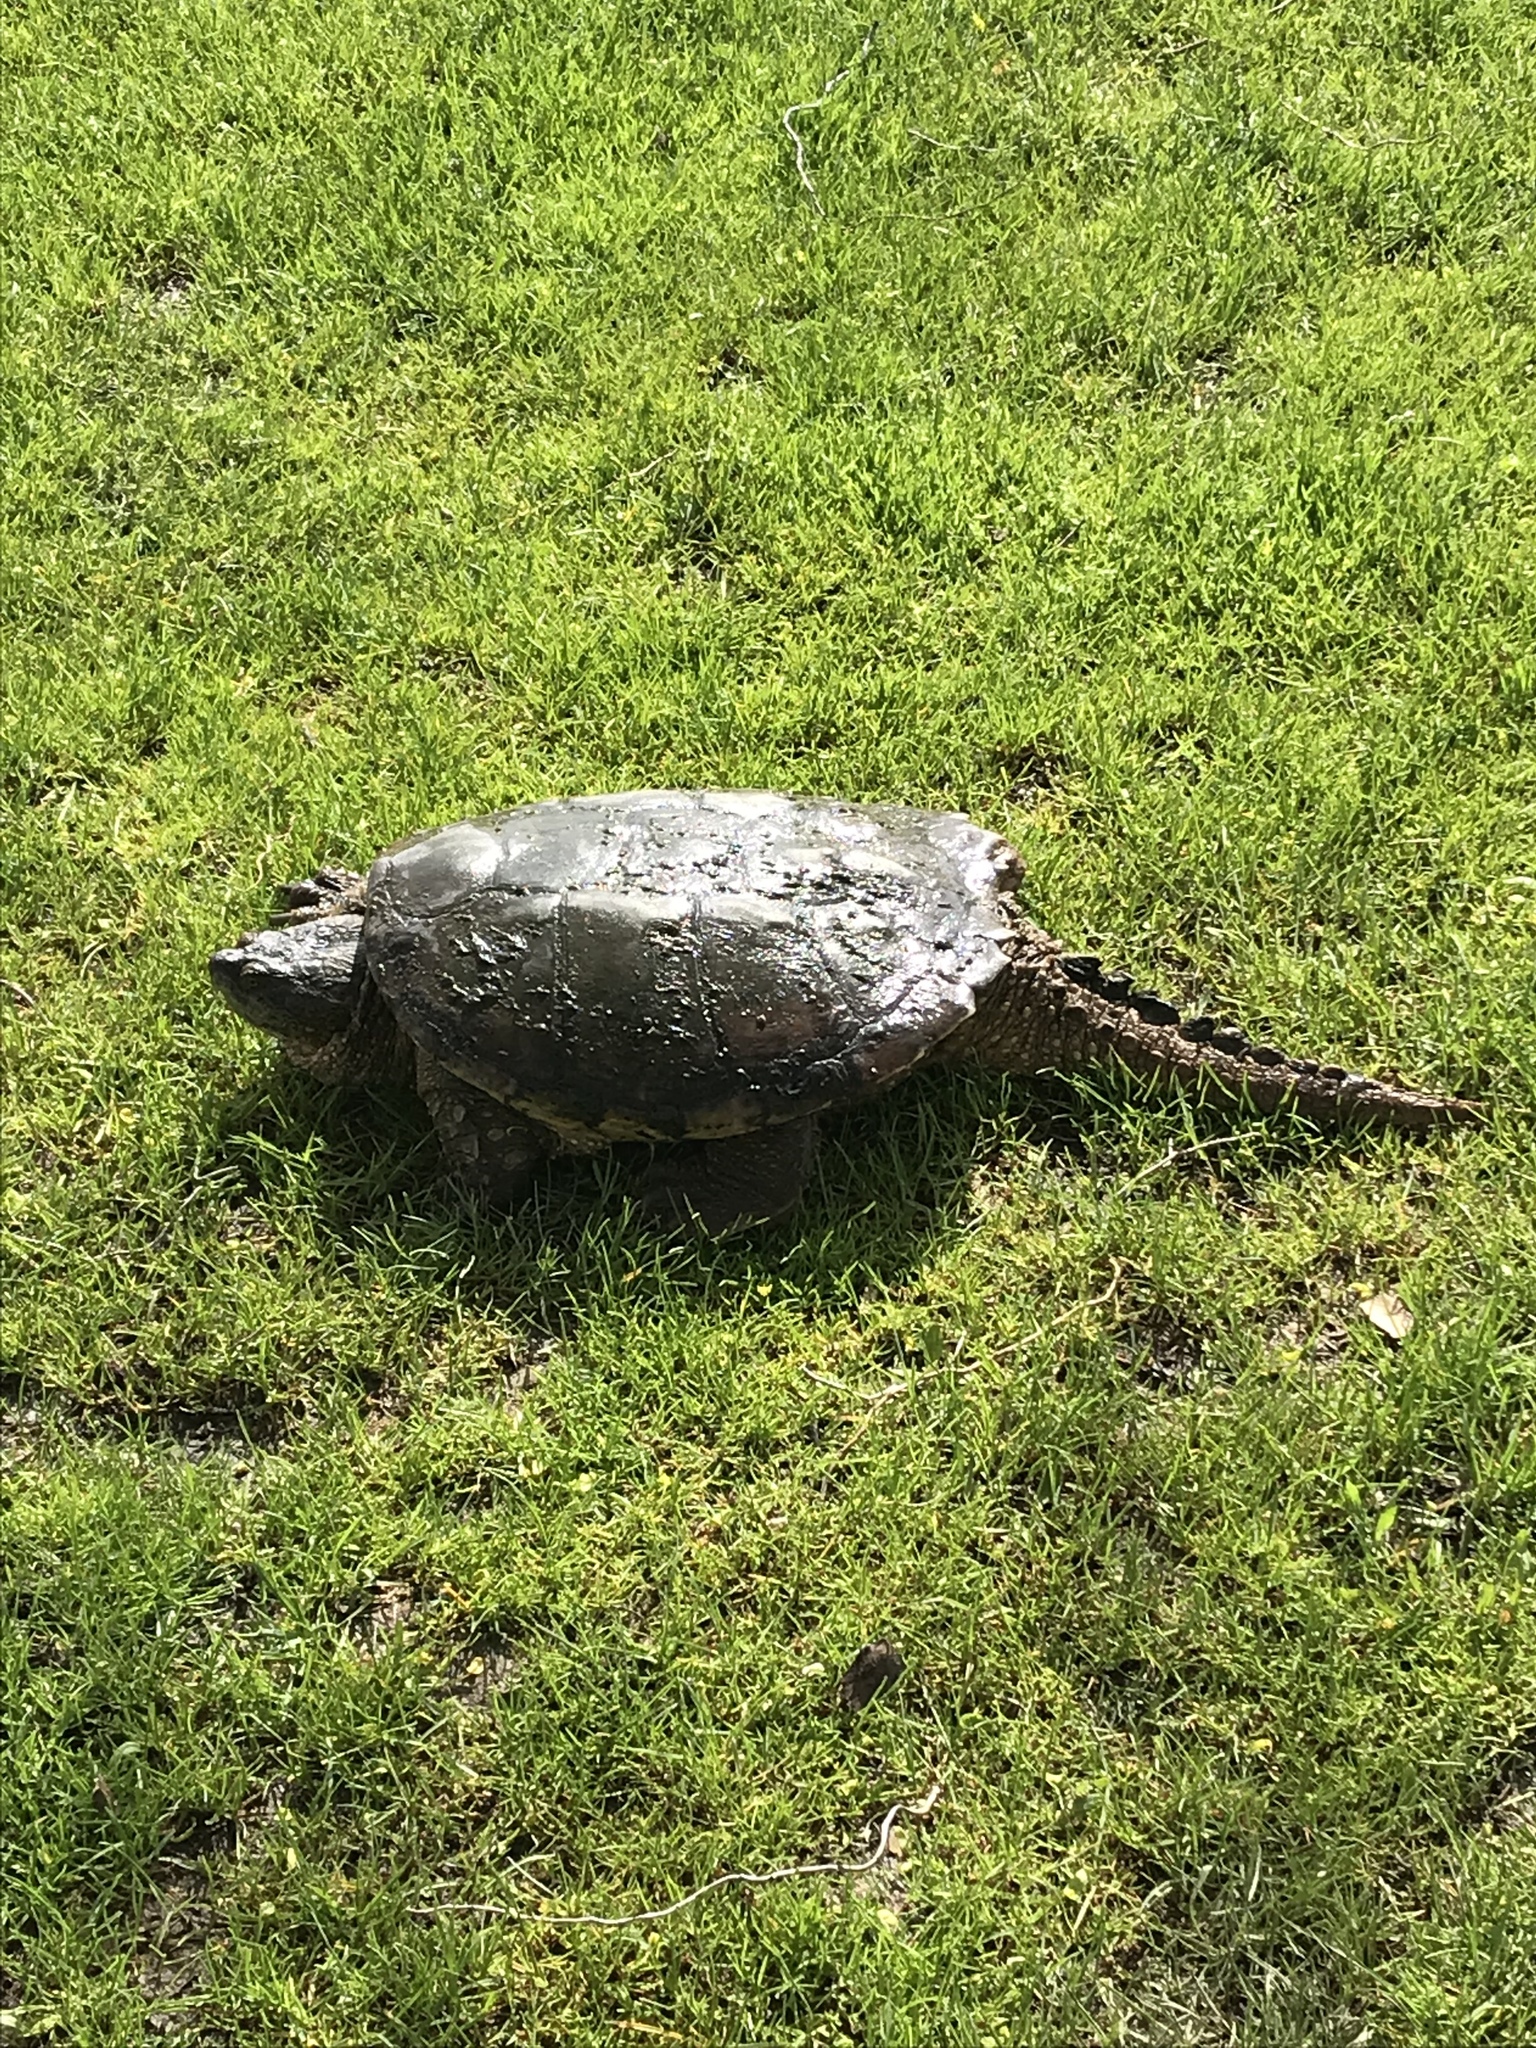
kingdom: Animalia
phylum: Chordata
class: Testudines
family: Chelydridae
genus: Chelydra
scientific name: Chelydra serpentina
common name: Common snapping turtle
